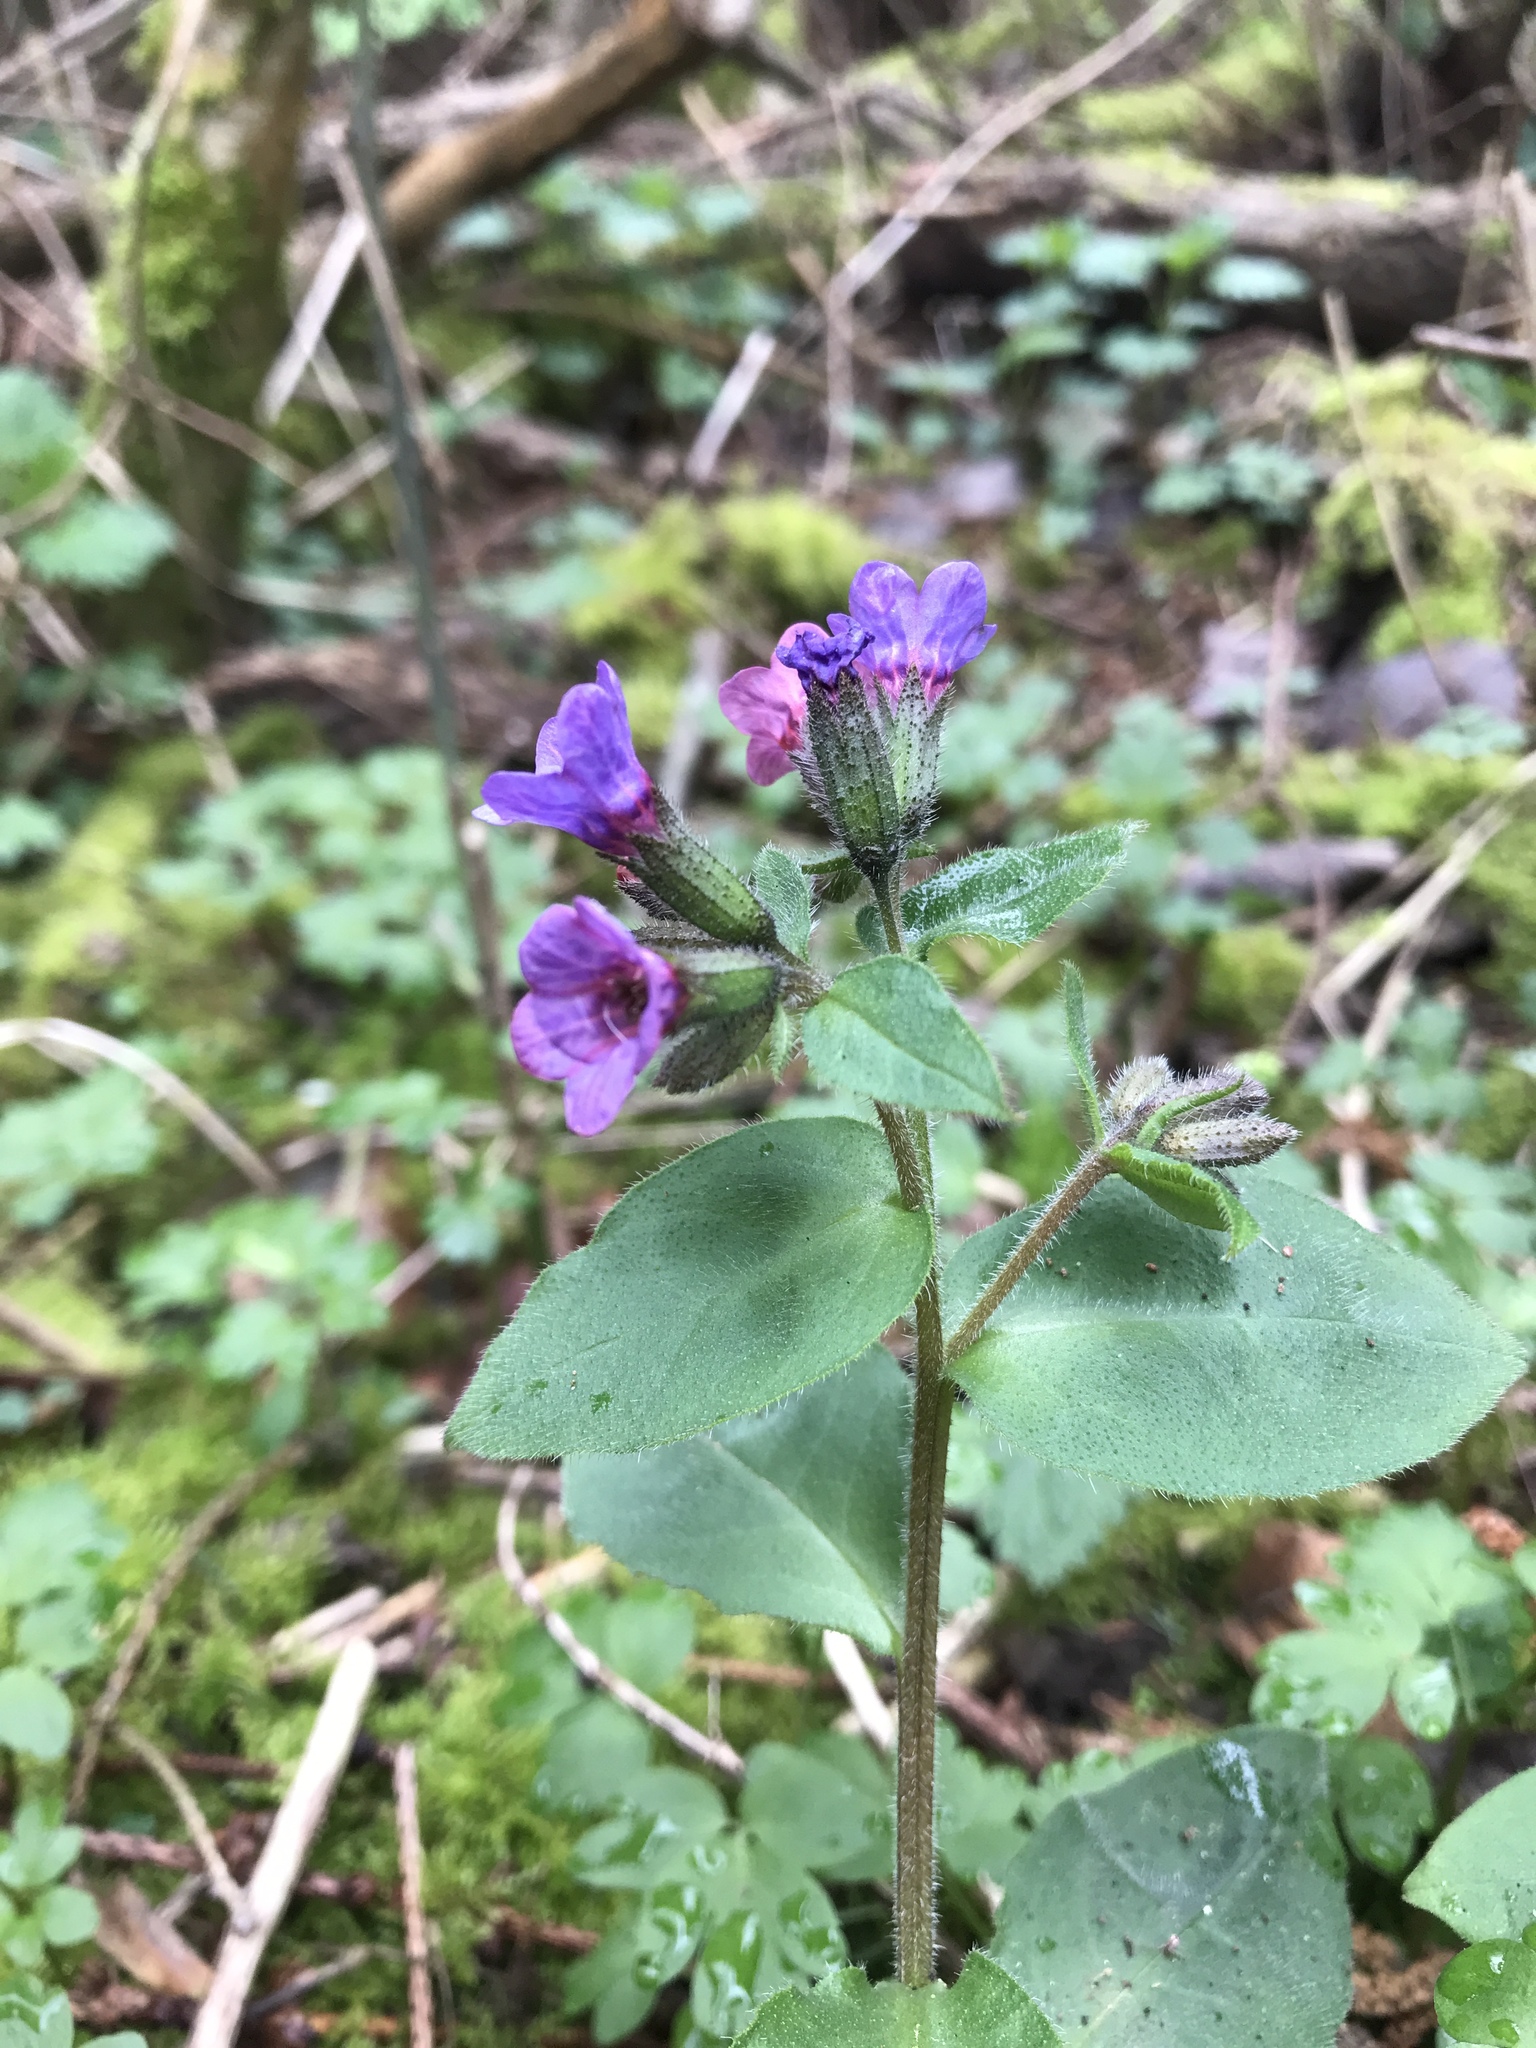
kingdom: Plantae
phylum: Tracheophyta
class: Magnoliopsida
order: Boraginales
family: Boraginaceae
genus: Pulmonaria
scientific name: Pulmonaria obscura
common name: Suffolk lungwort
